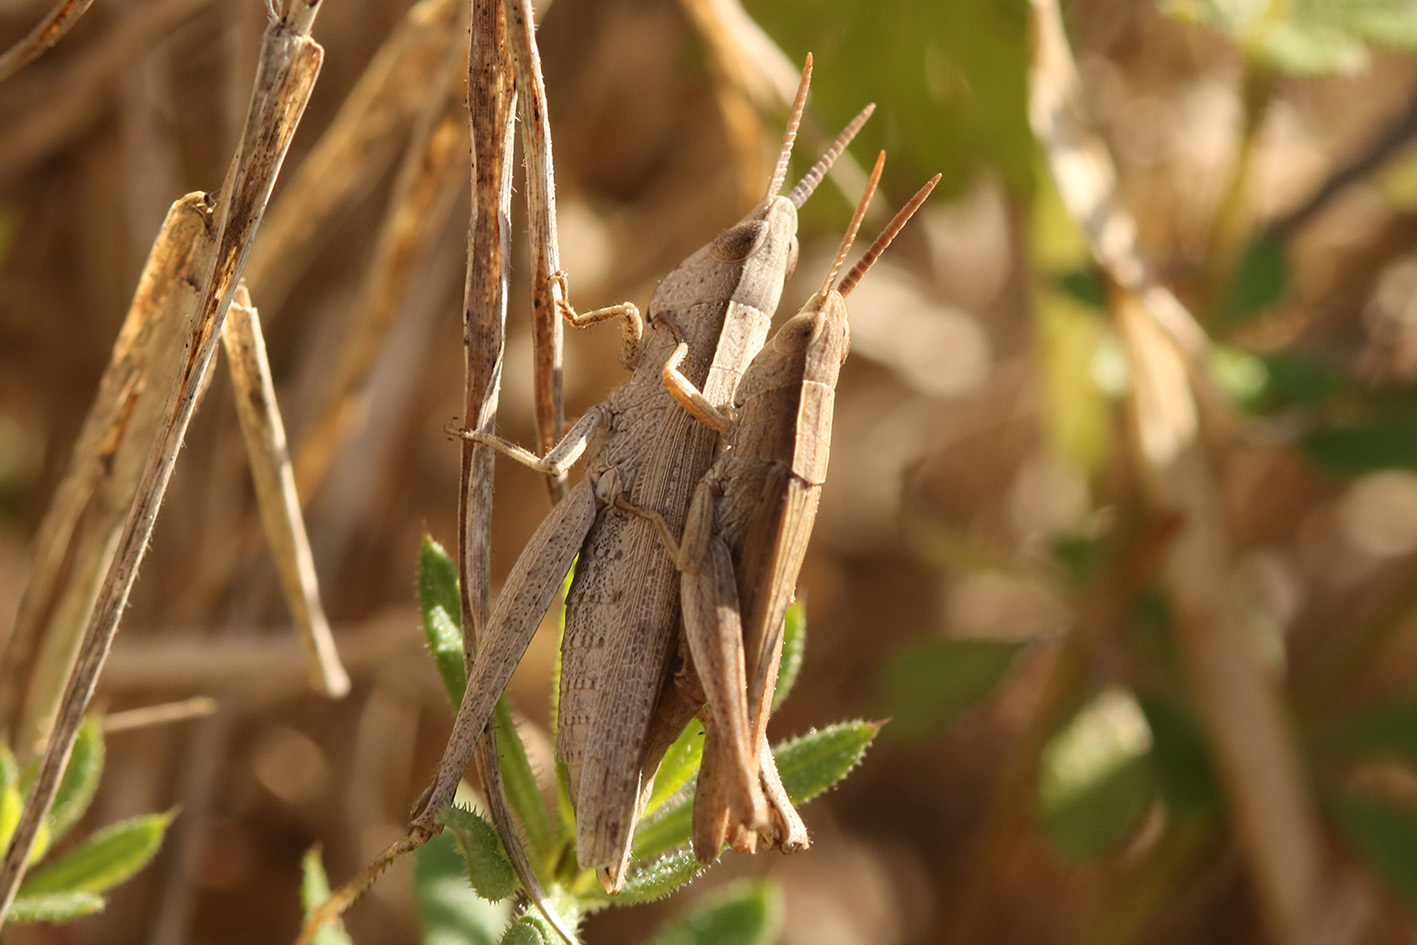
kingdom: Animalia
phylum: Arthropoda
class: Insecta
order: Orthoptera
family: Acrididae
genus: Laplatacris
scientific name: Laplatacris dispar
